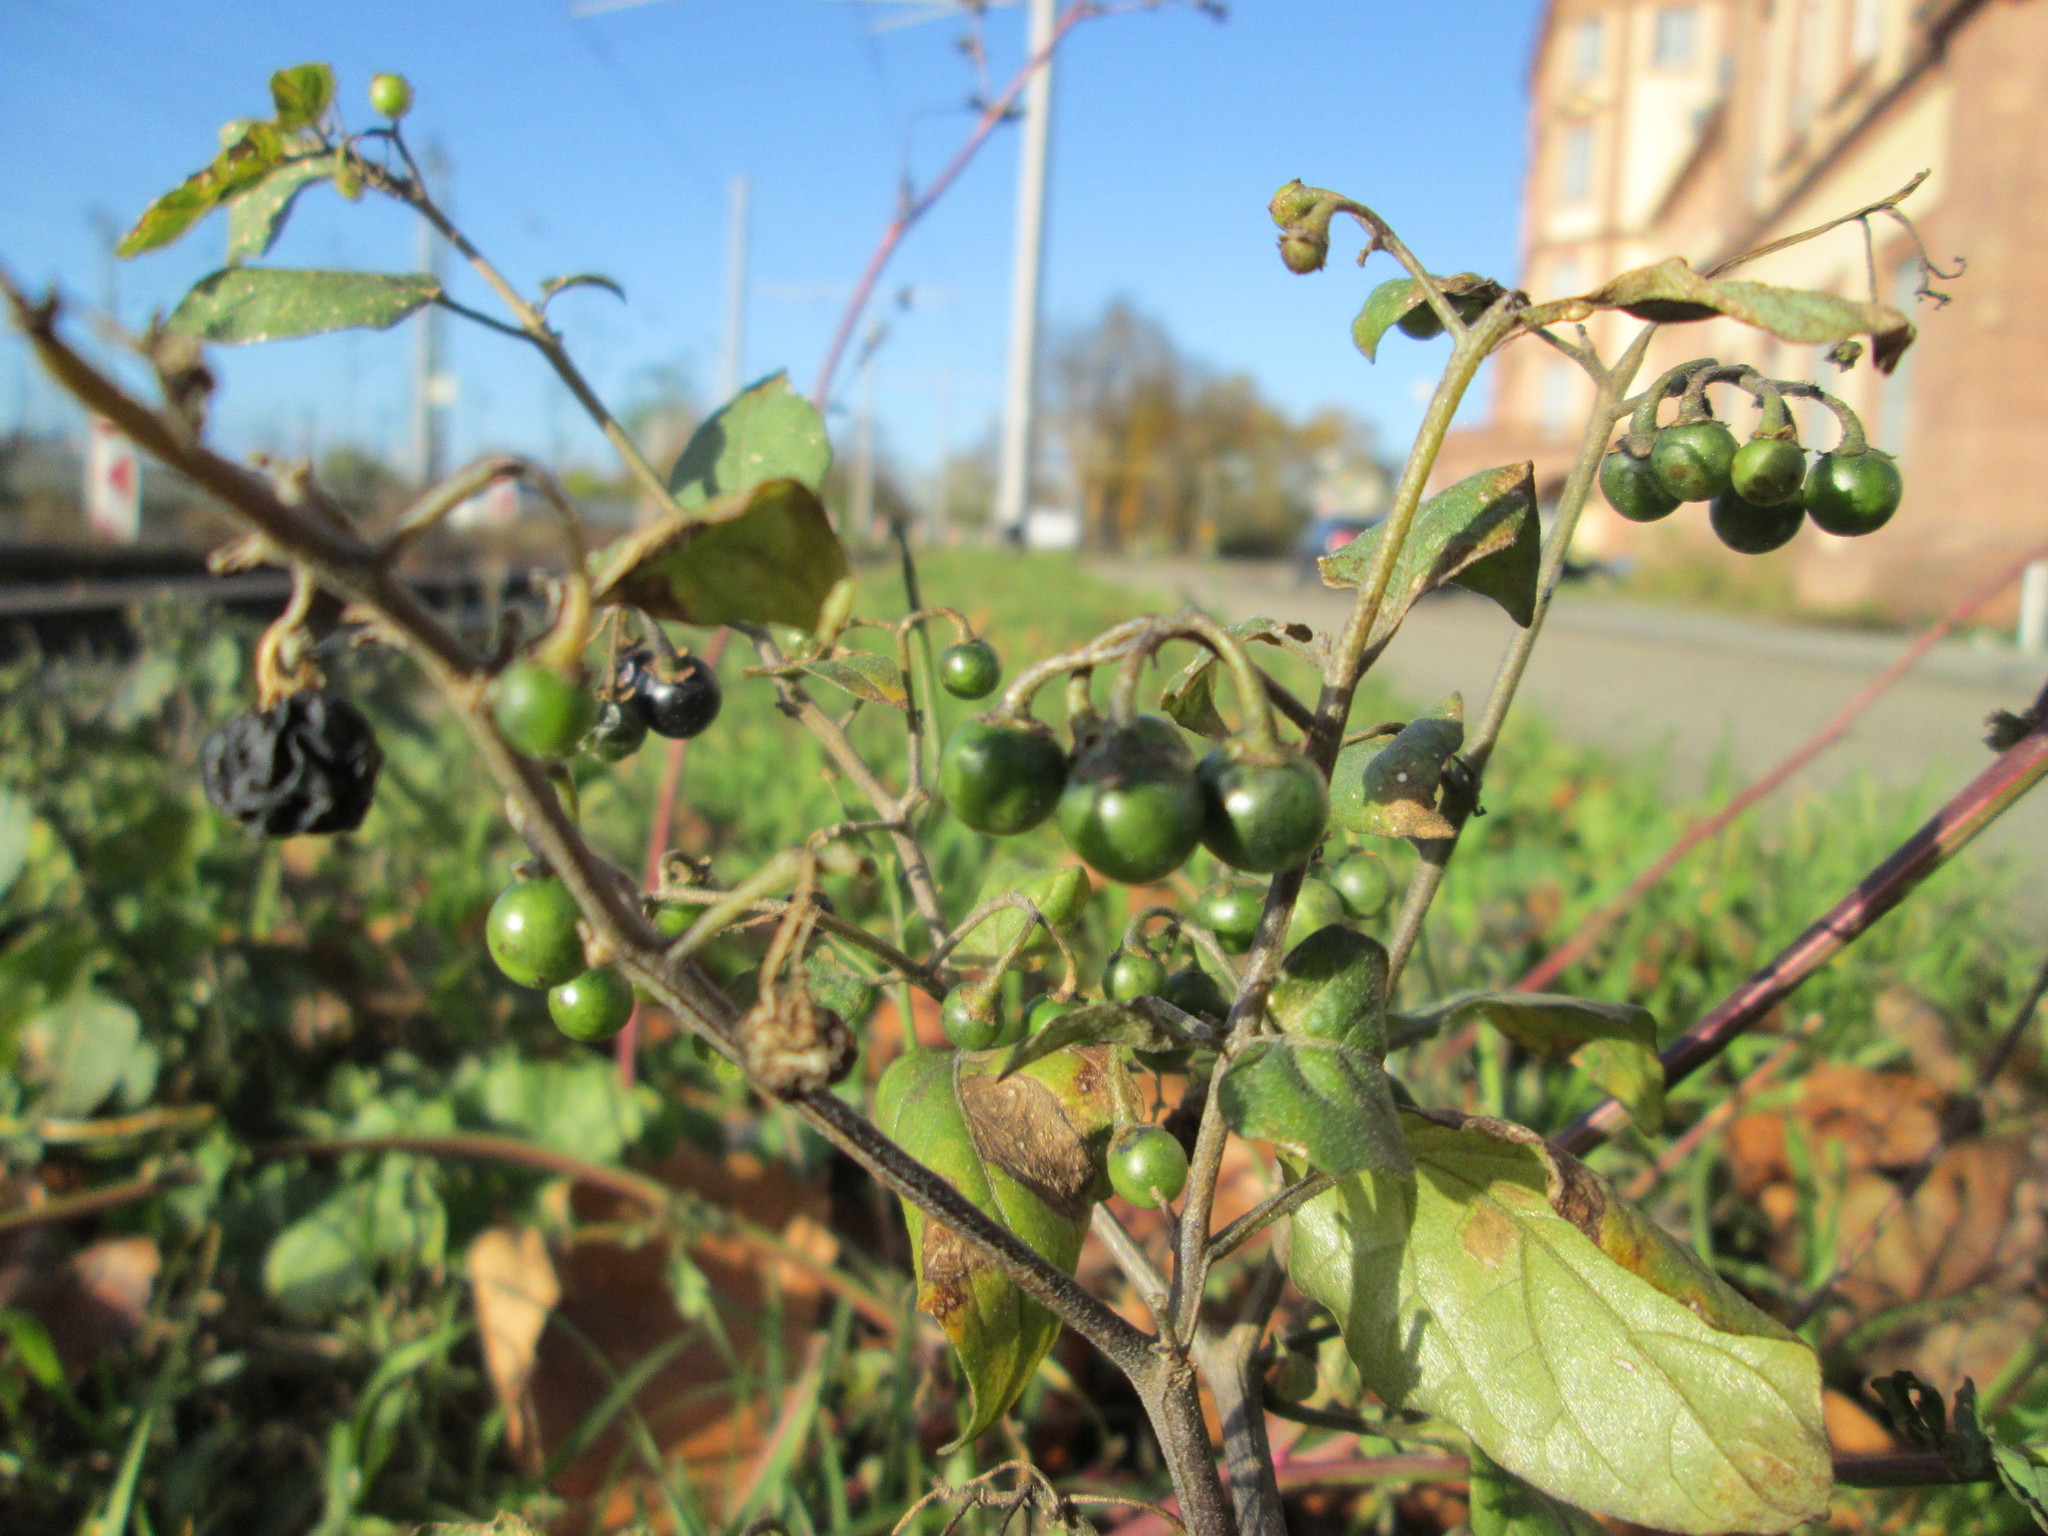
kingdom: Plantae
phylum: Tracheophyta
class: Magnoliopsida
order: Solanales
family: Solanaceae
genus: Solanum
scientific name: Solanum nigrum
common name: Black nightshade
